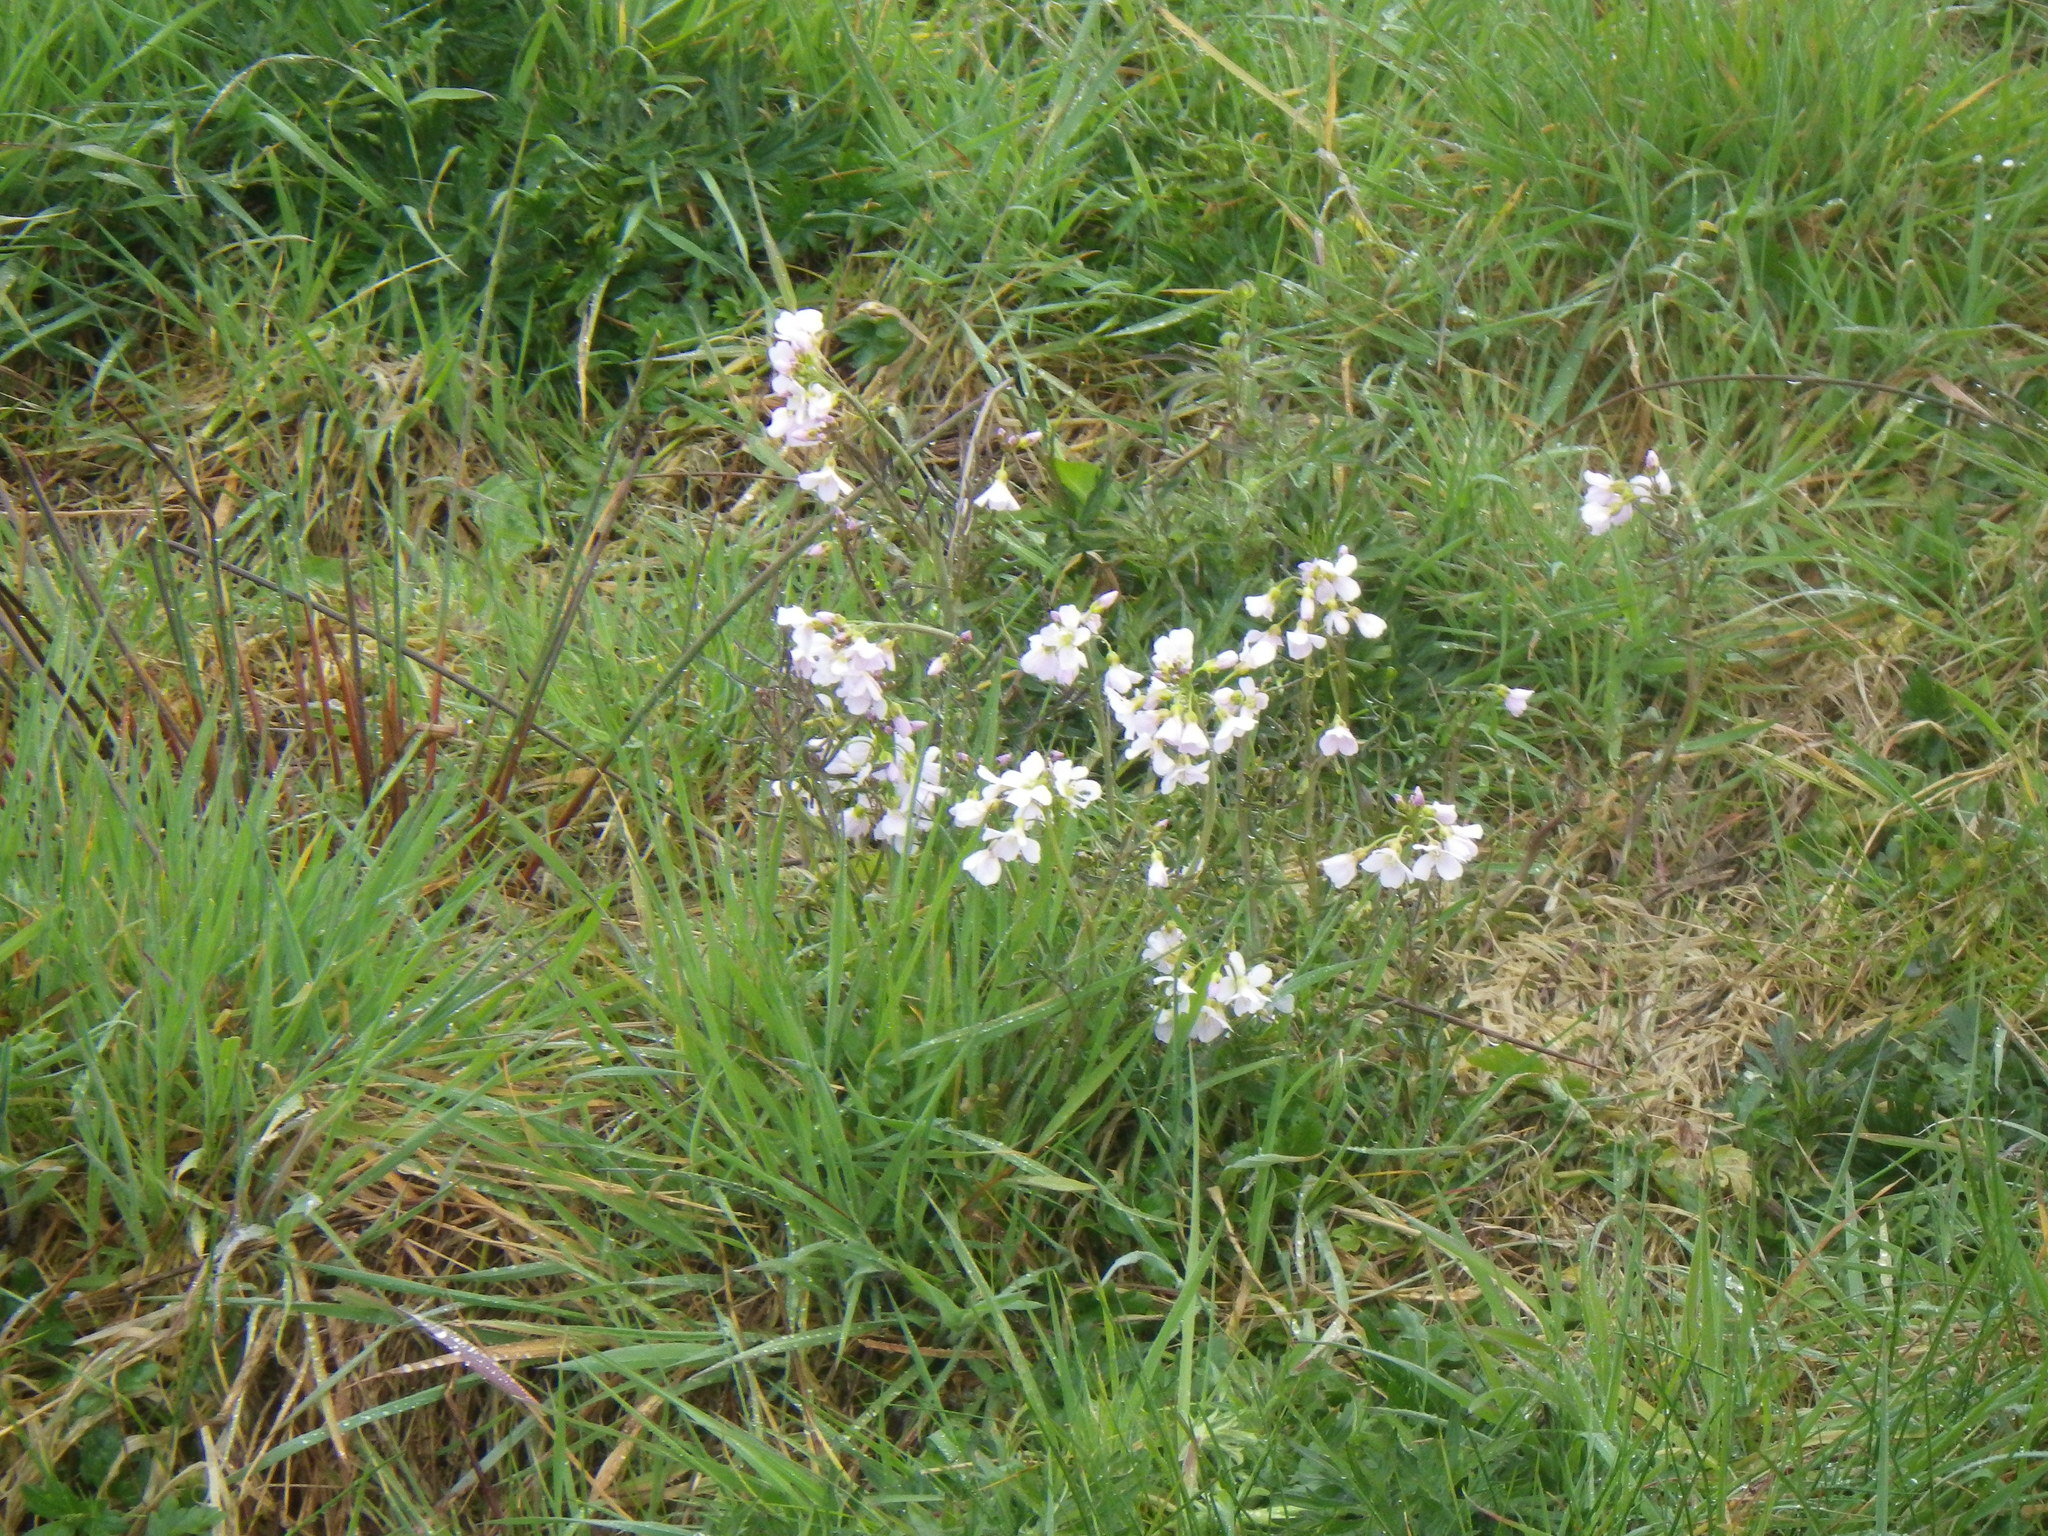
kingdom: Plantae
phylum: Tracheophyta
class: Magnoliopsida
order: Brassicales
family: Brassicaceae
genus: Cardamine
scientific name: Cardamine pratensis
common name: Cuckoo flower
